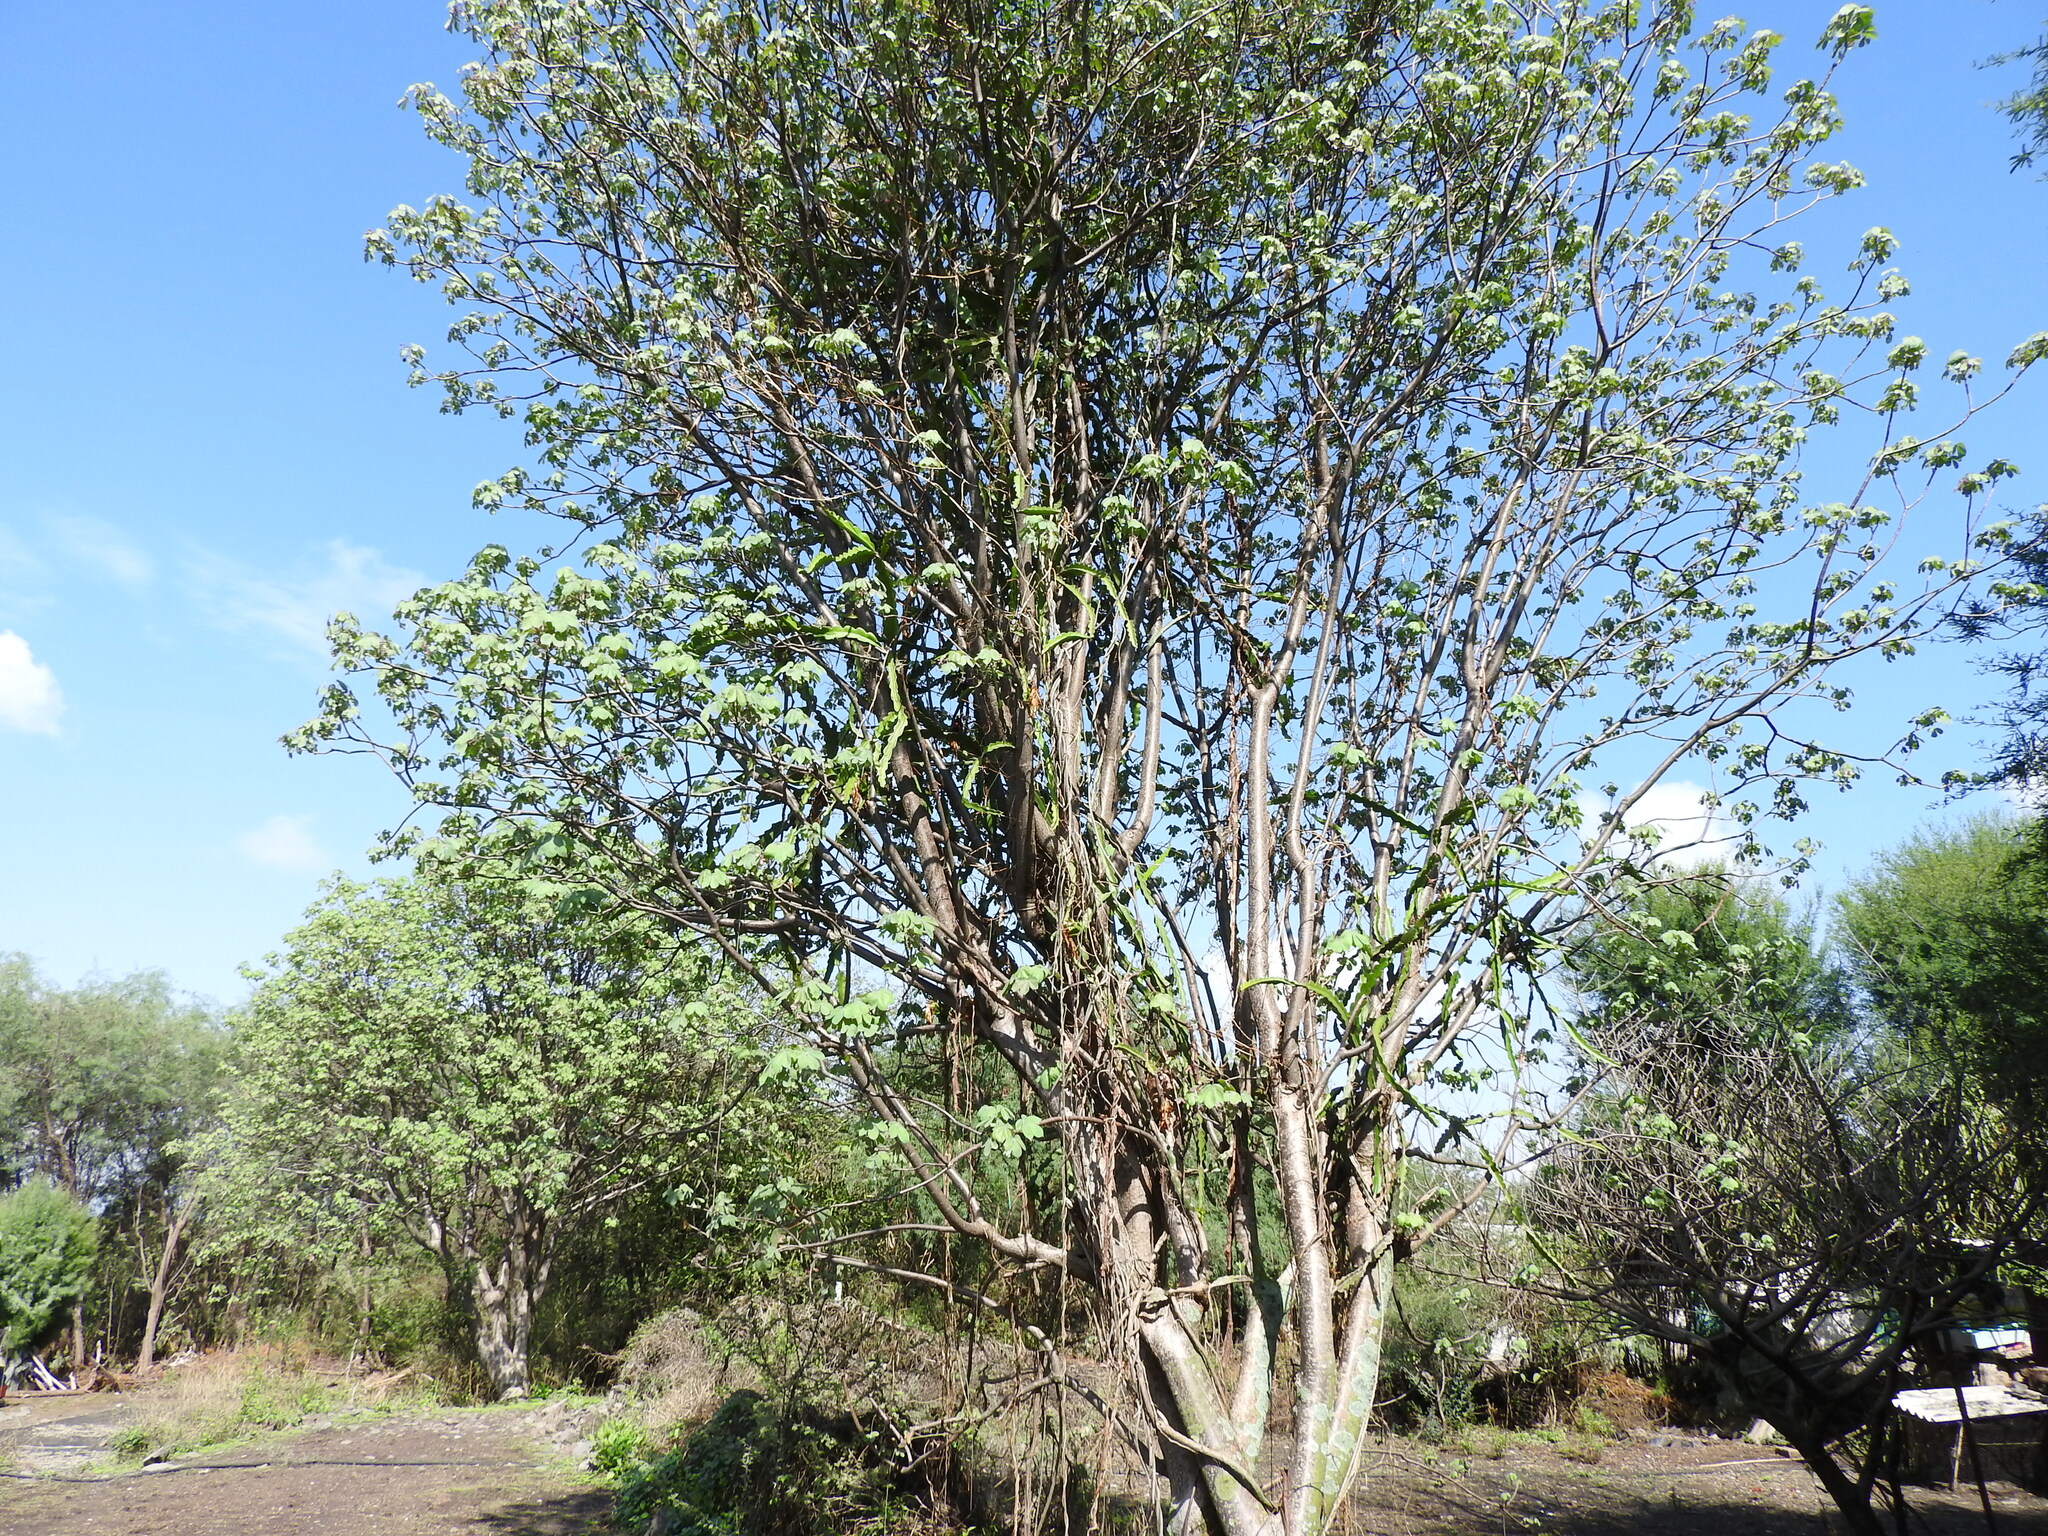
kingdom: Plantae
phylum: Tracheophyta
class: Magnoliopsida
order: Malpighiales
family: Euphorbiaceae
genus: Manihot
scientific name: Manihot caudata
